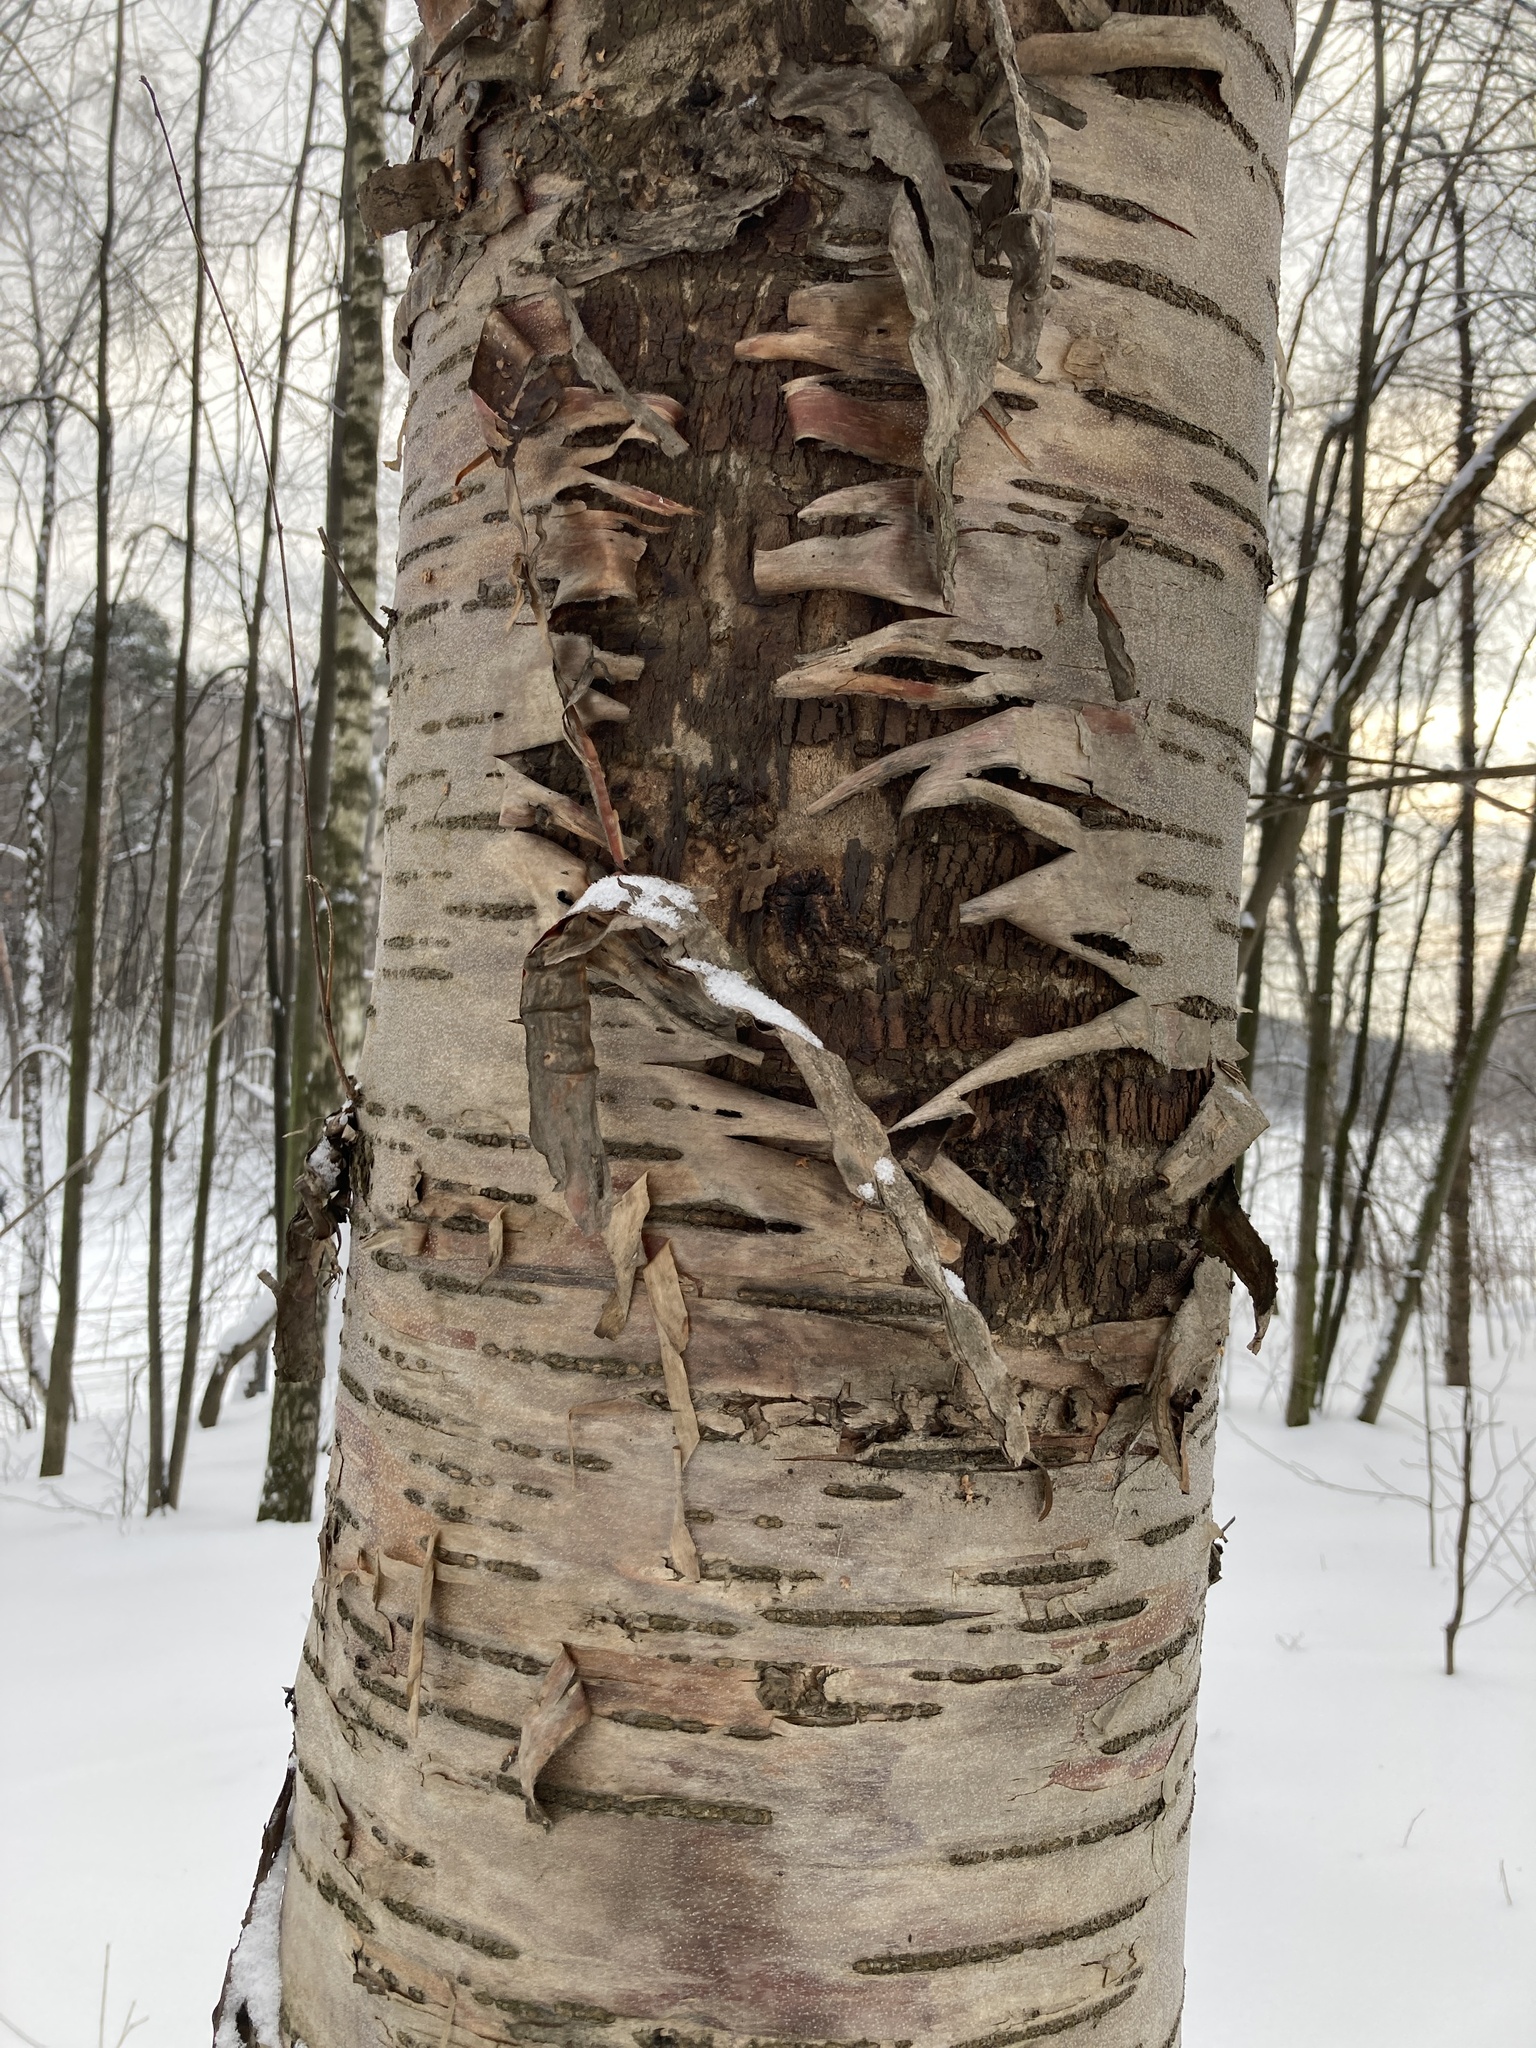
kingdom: Plantae
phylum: Tracheophyta
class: Magnoliopsida
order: Rosales
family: Rosaceae
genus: Prunus
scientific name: Prunus glandulifolia
